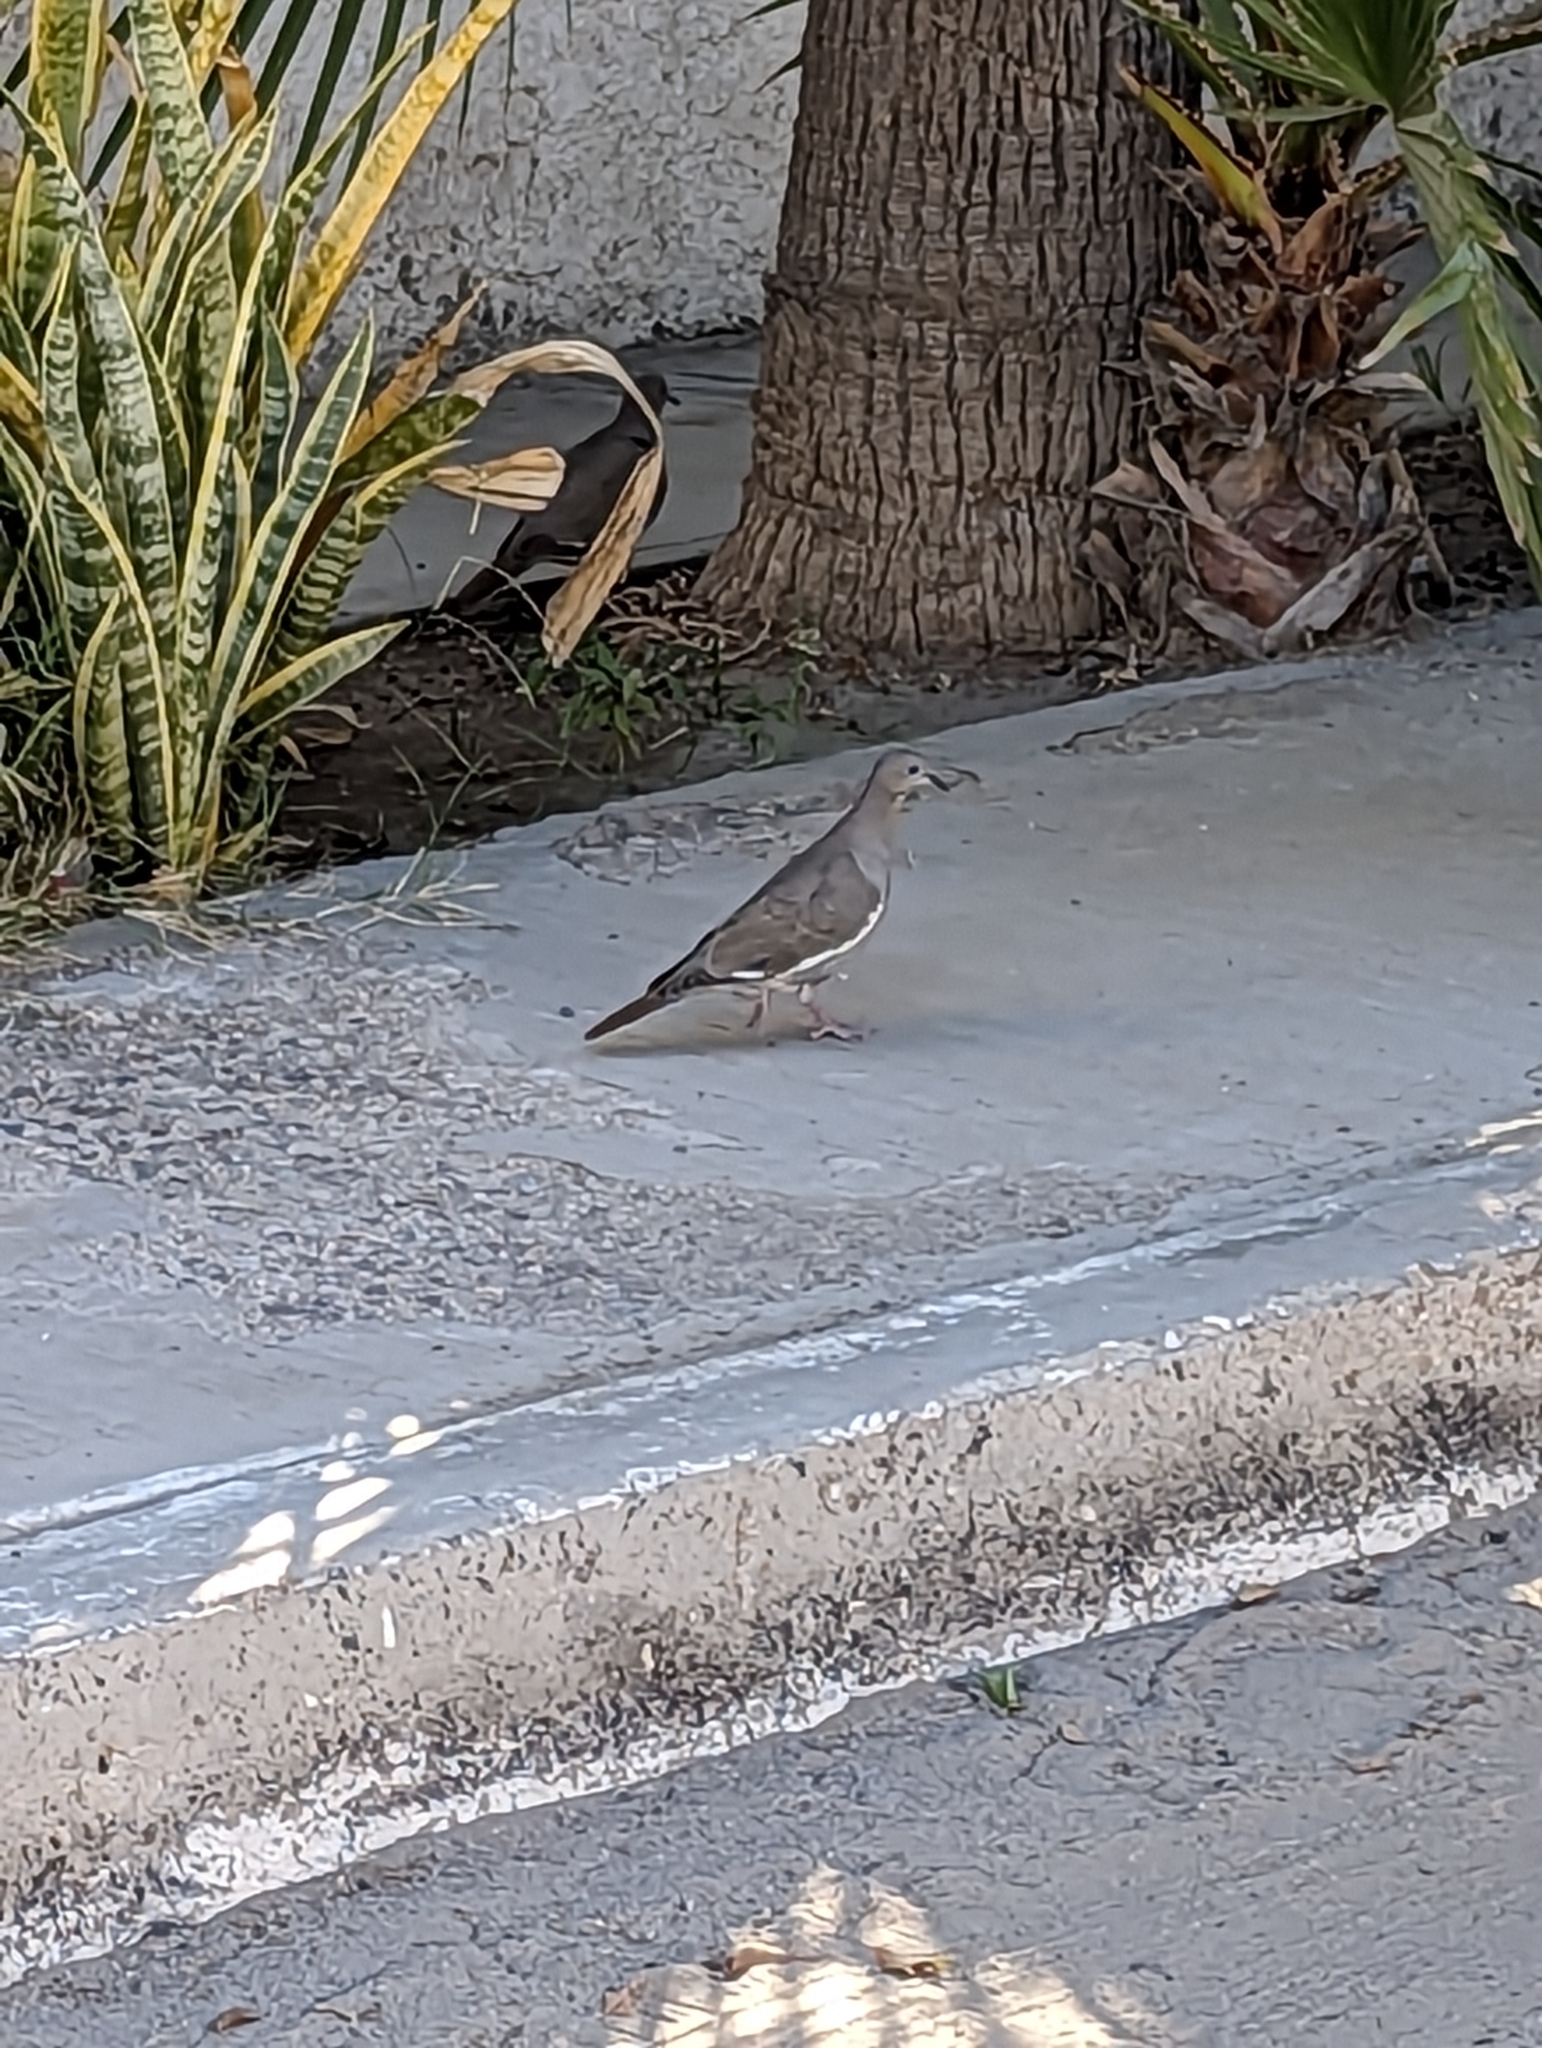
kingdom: Animalia
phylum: Chordata
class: Aves
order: Columbiformes
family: Columbidae
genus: Zenaida
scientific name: Zenaida asiatica
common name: White-winged dove
